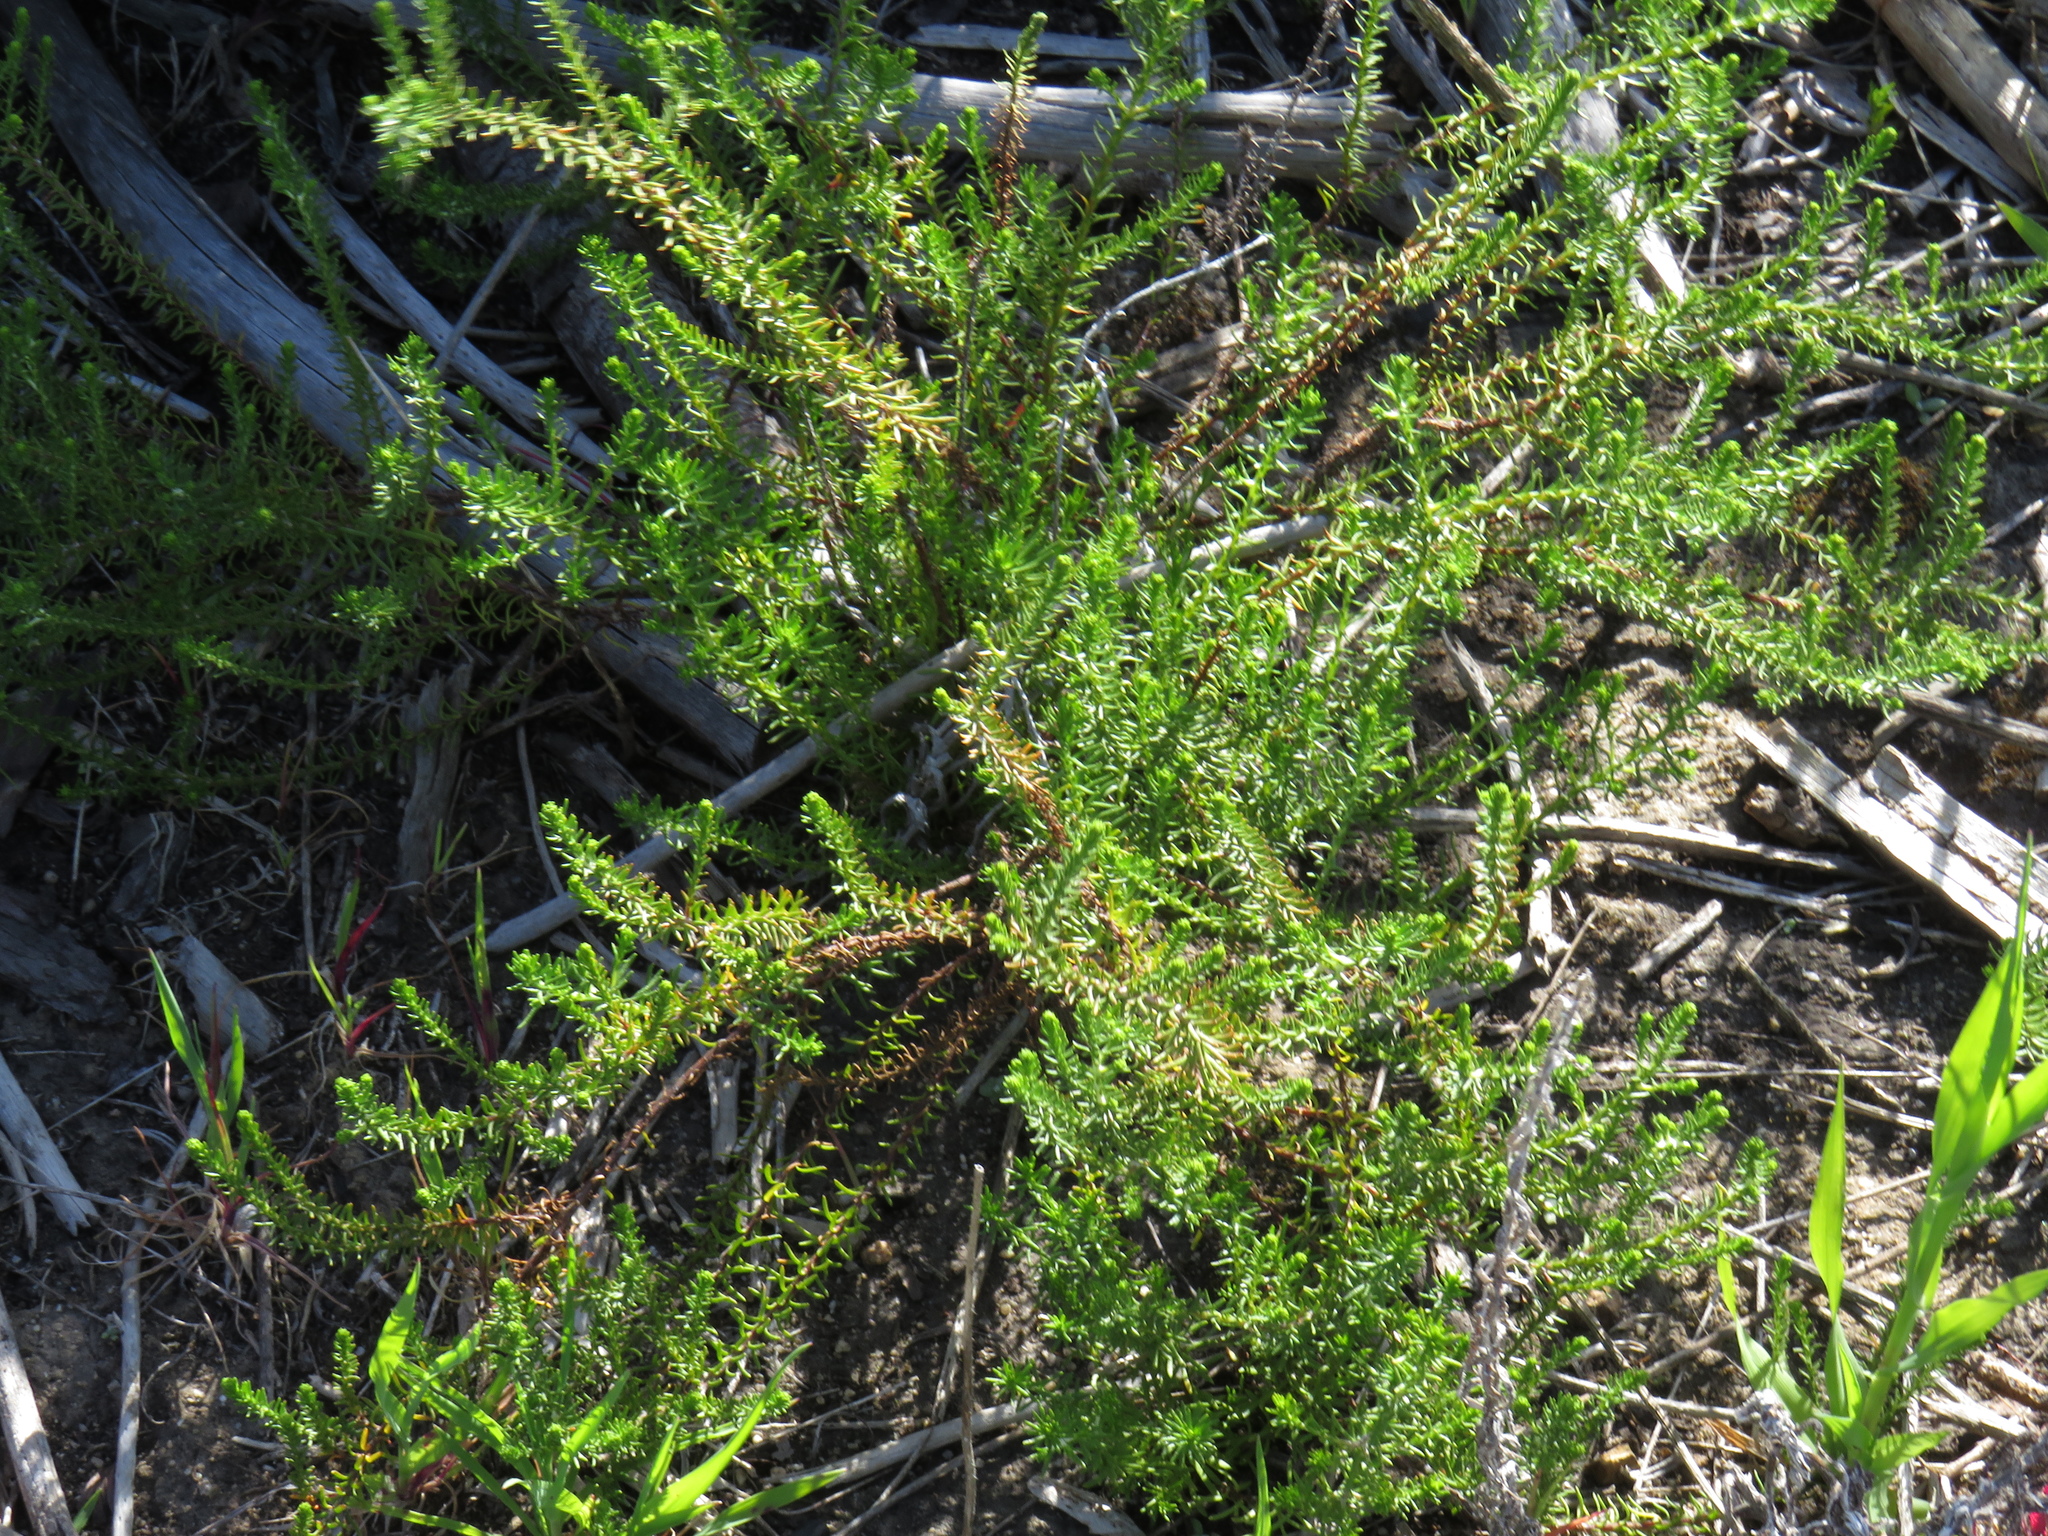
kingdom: Plantae
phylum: Tracheophyta
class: Magnoliopsida
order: Asterales
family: Asteraceae
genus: Chrysocoma
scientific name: Chrysocoma cernua
